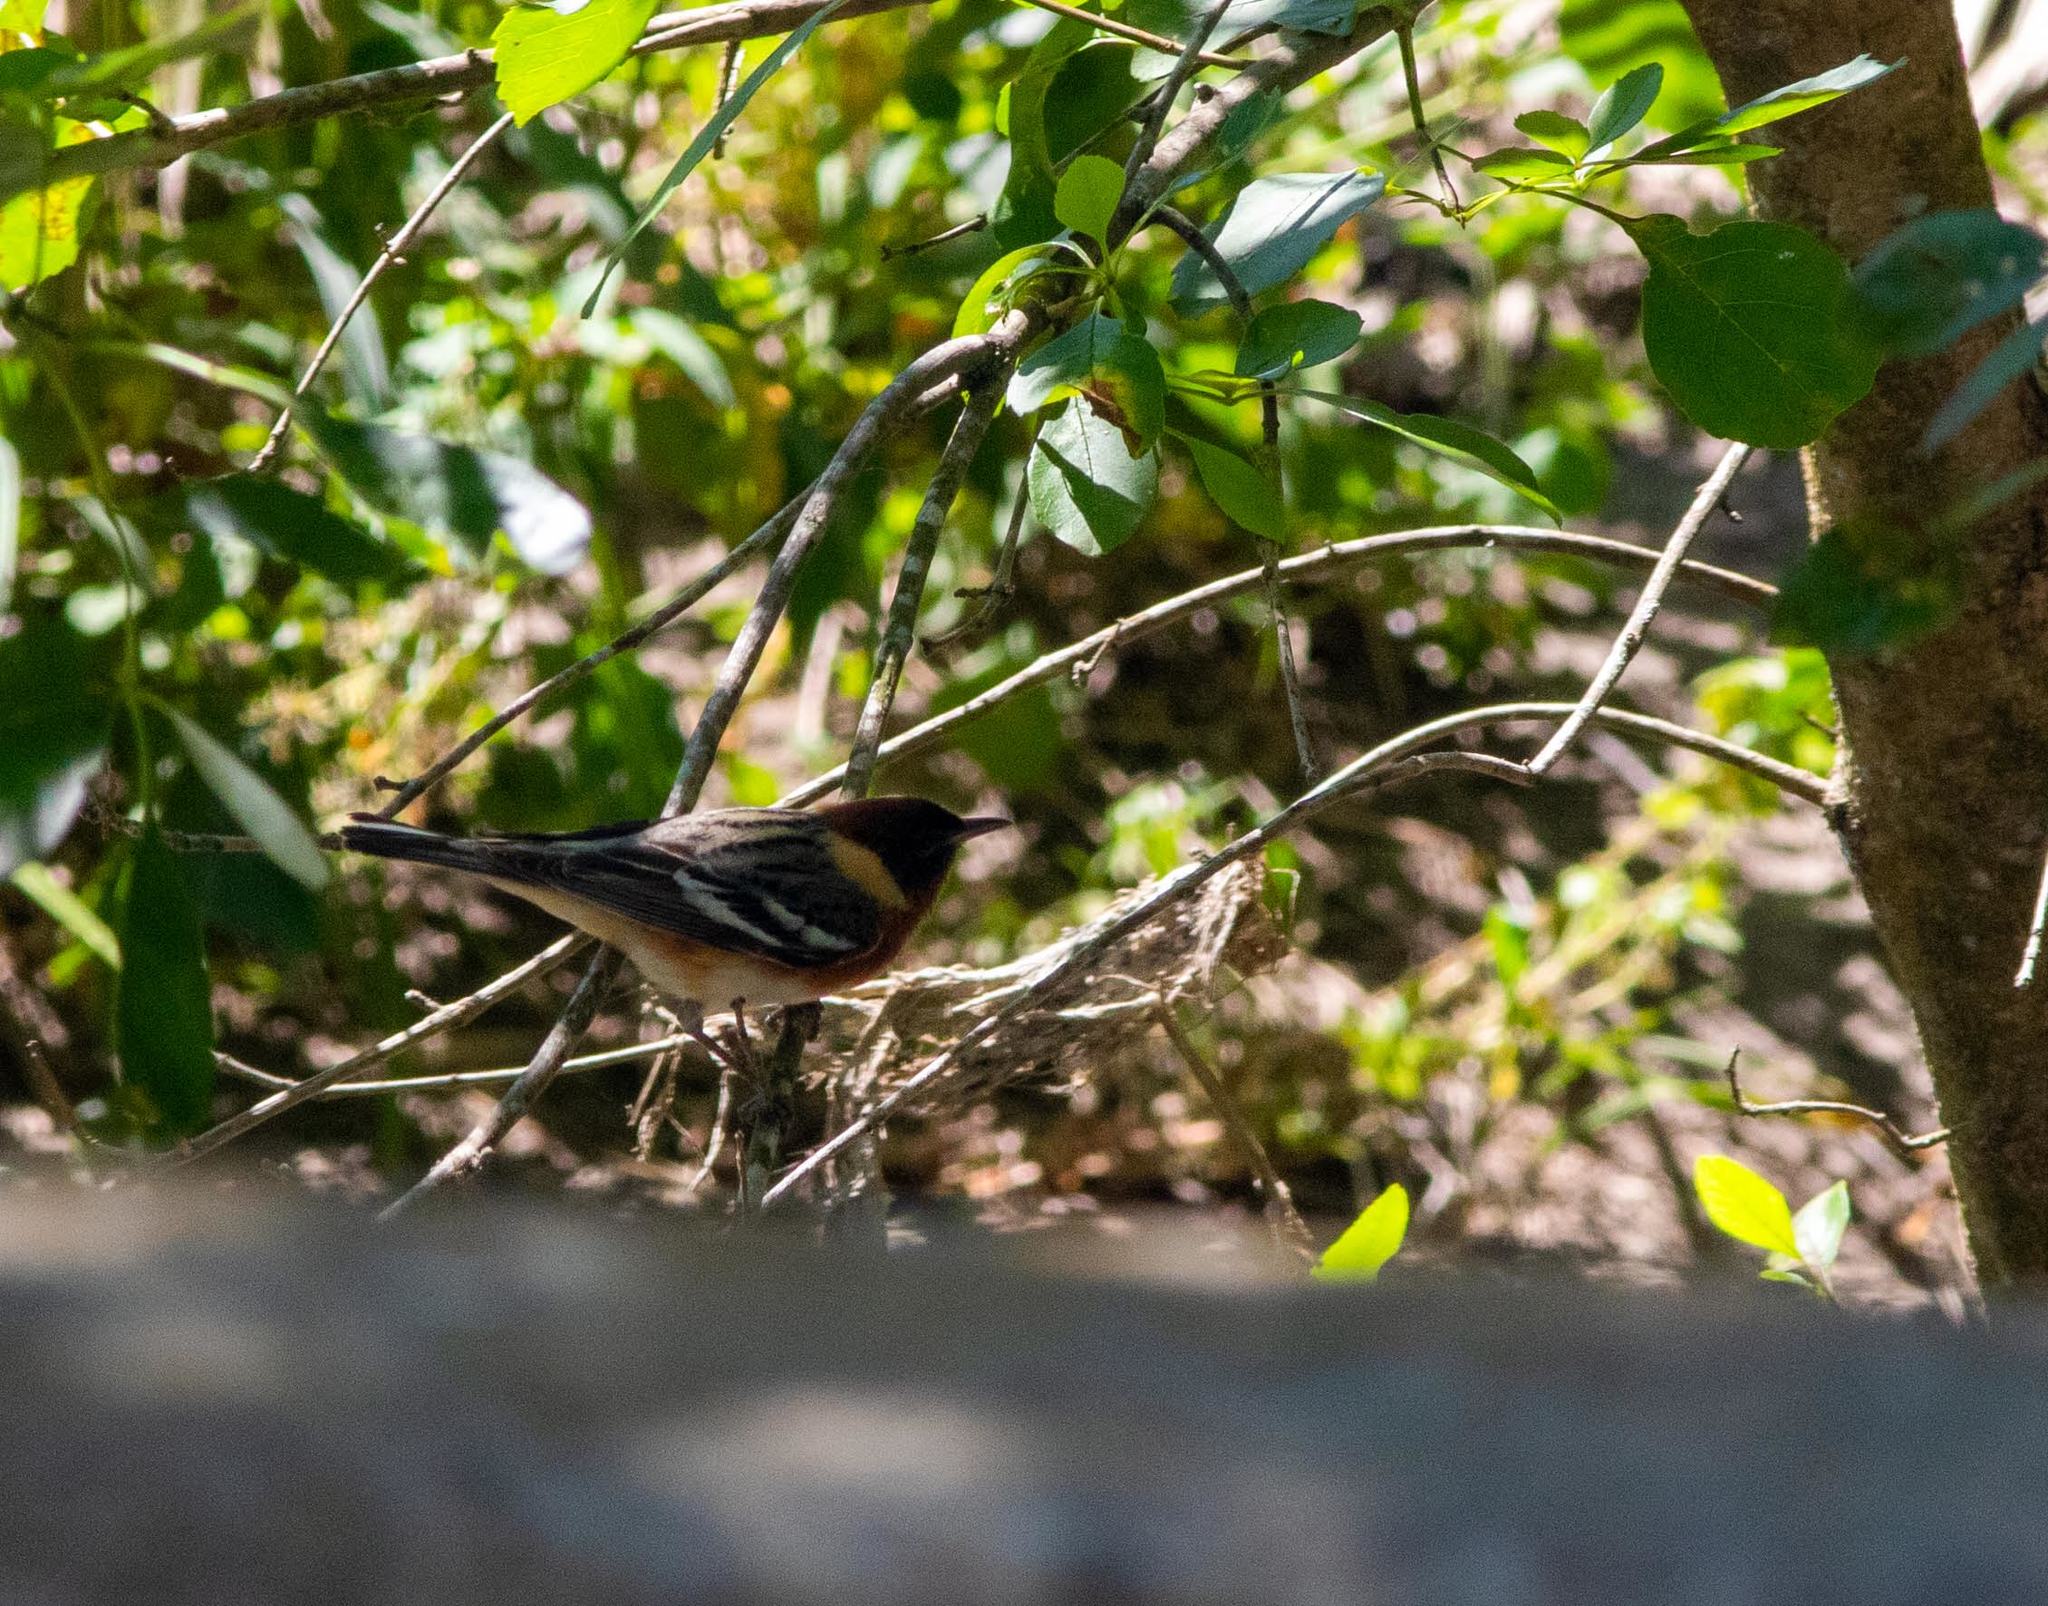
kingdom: Animalia
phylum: Chordata
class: Aves
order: Passeriformes
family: Parulidae
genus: Setophaga
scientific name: Setophaga castanea
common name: Bay-breasted warbler
